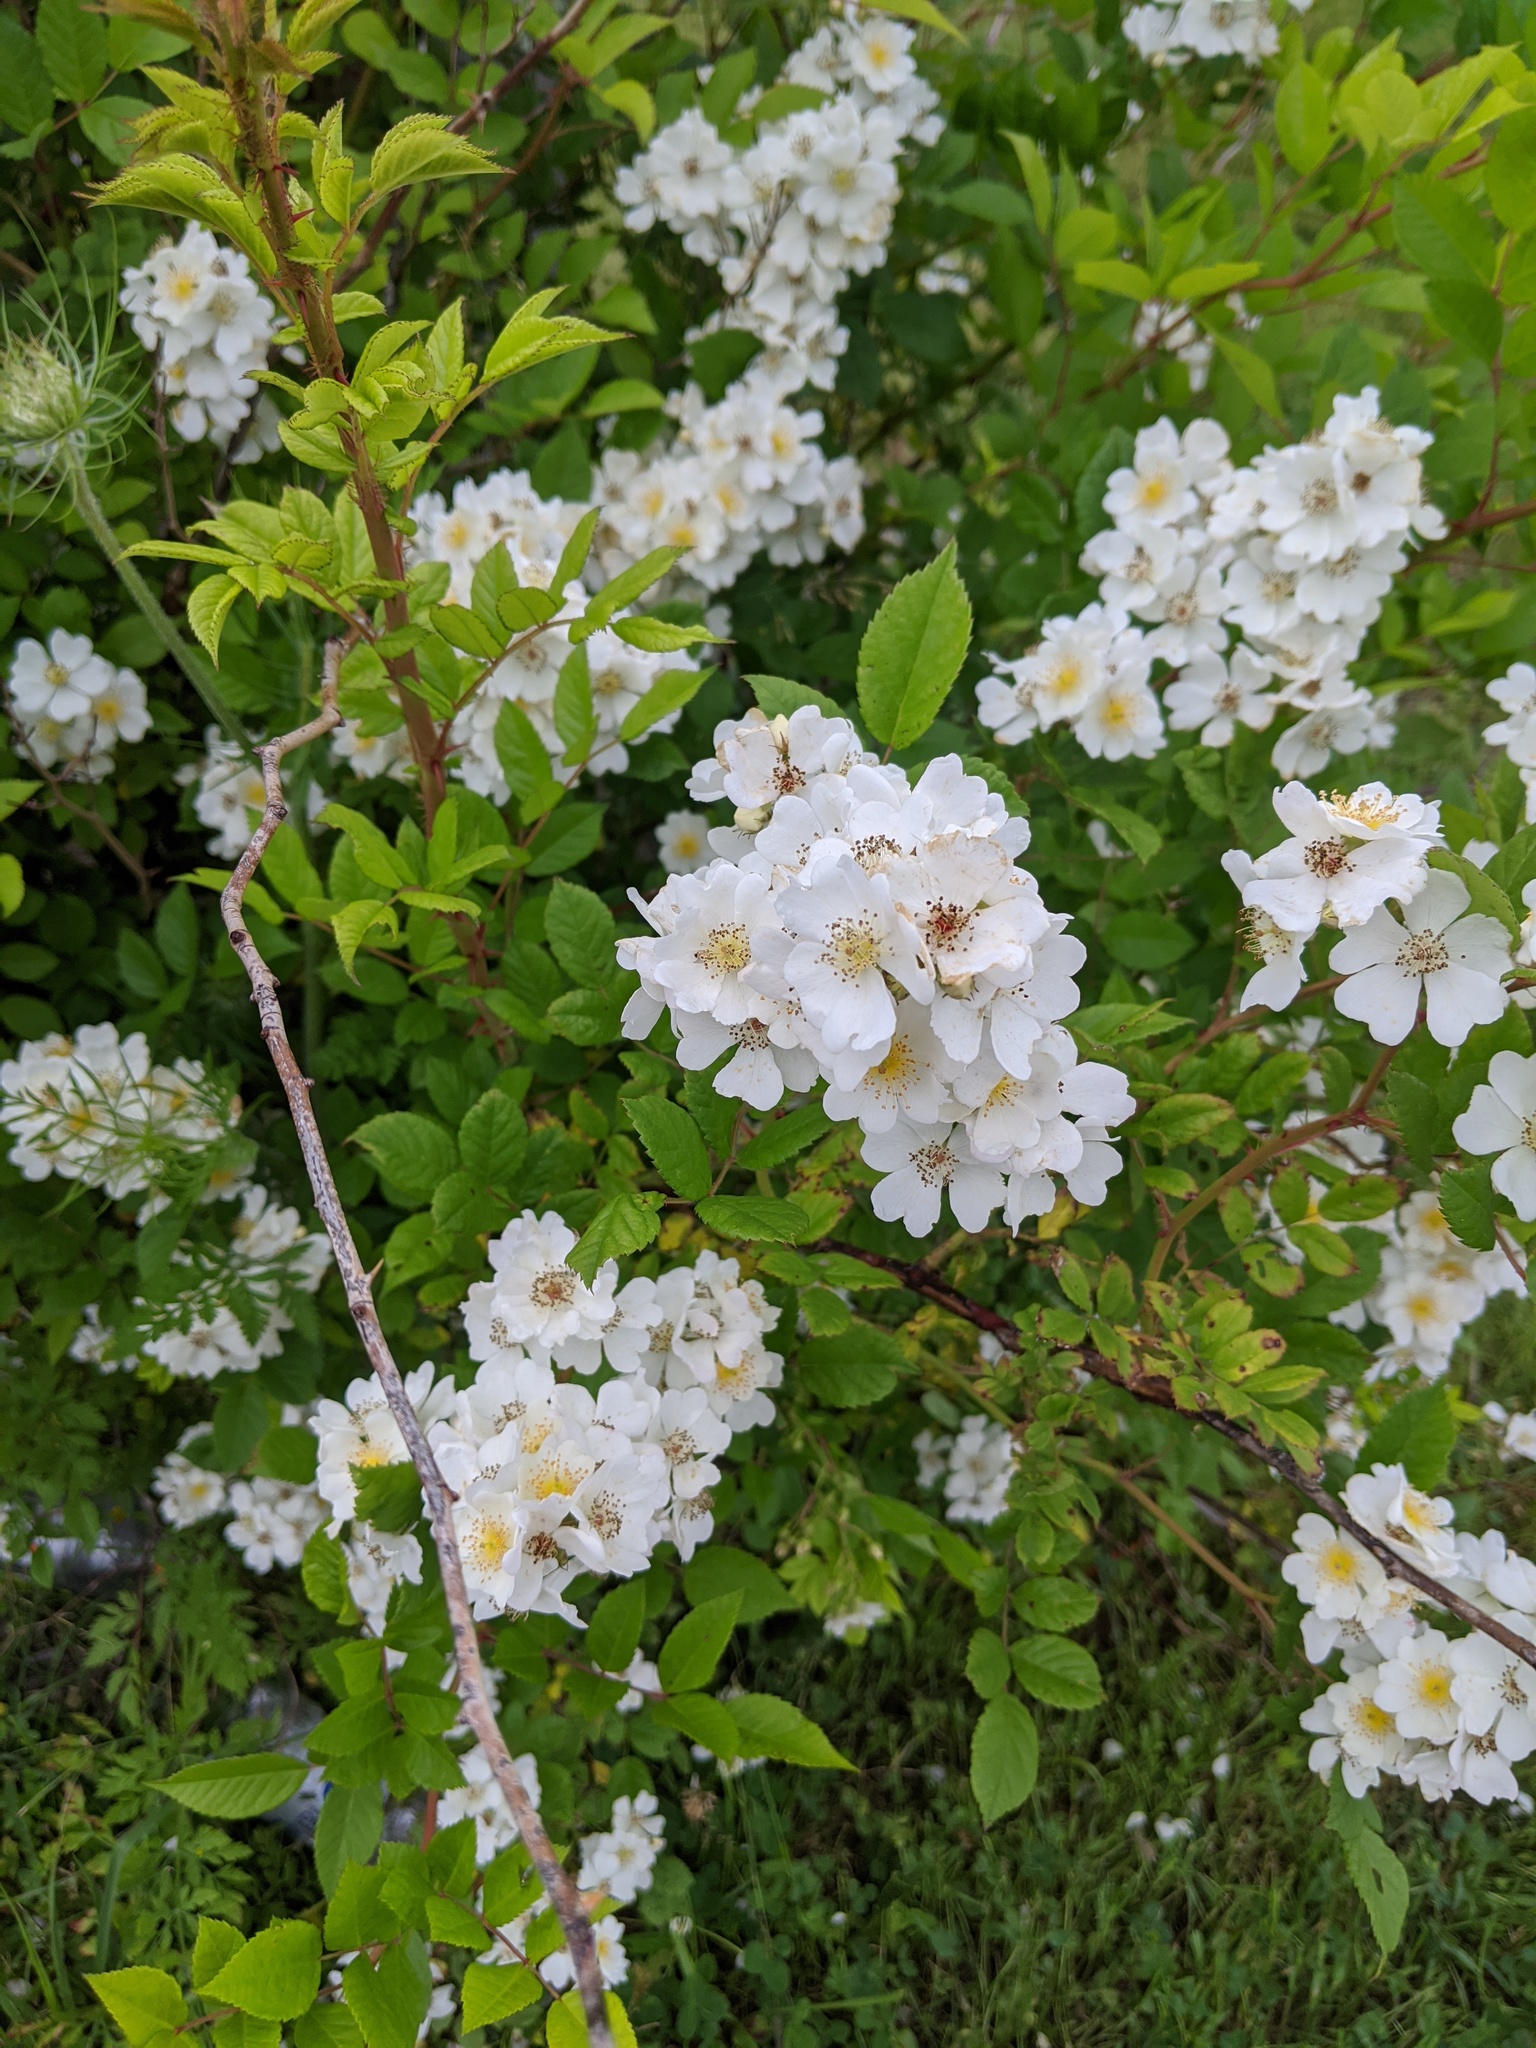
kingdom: Plantae
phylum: Tracheophyta
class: Magnoliopsida
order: Rosales
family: Rosaceae
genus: Rosa
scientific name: Rosa multiflora
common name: Multiflora rose
